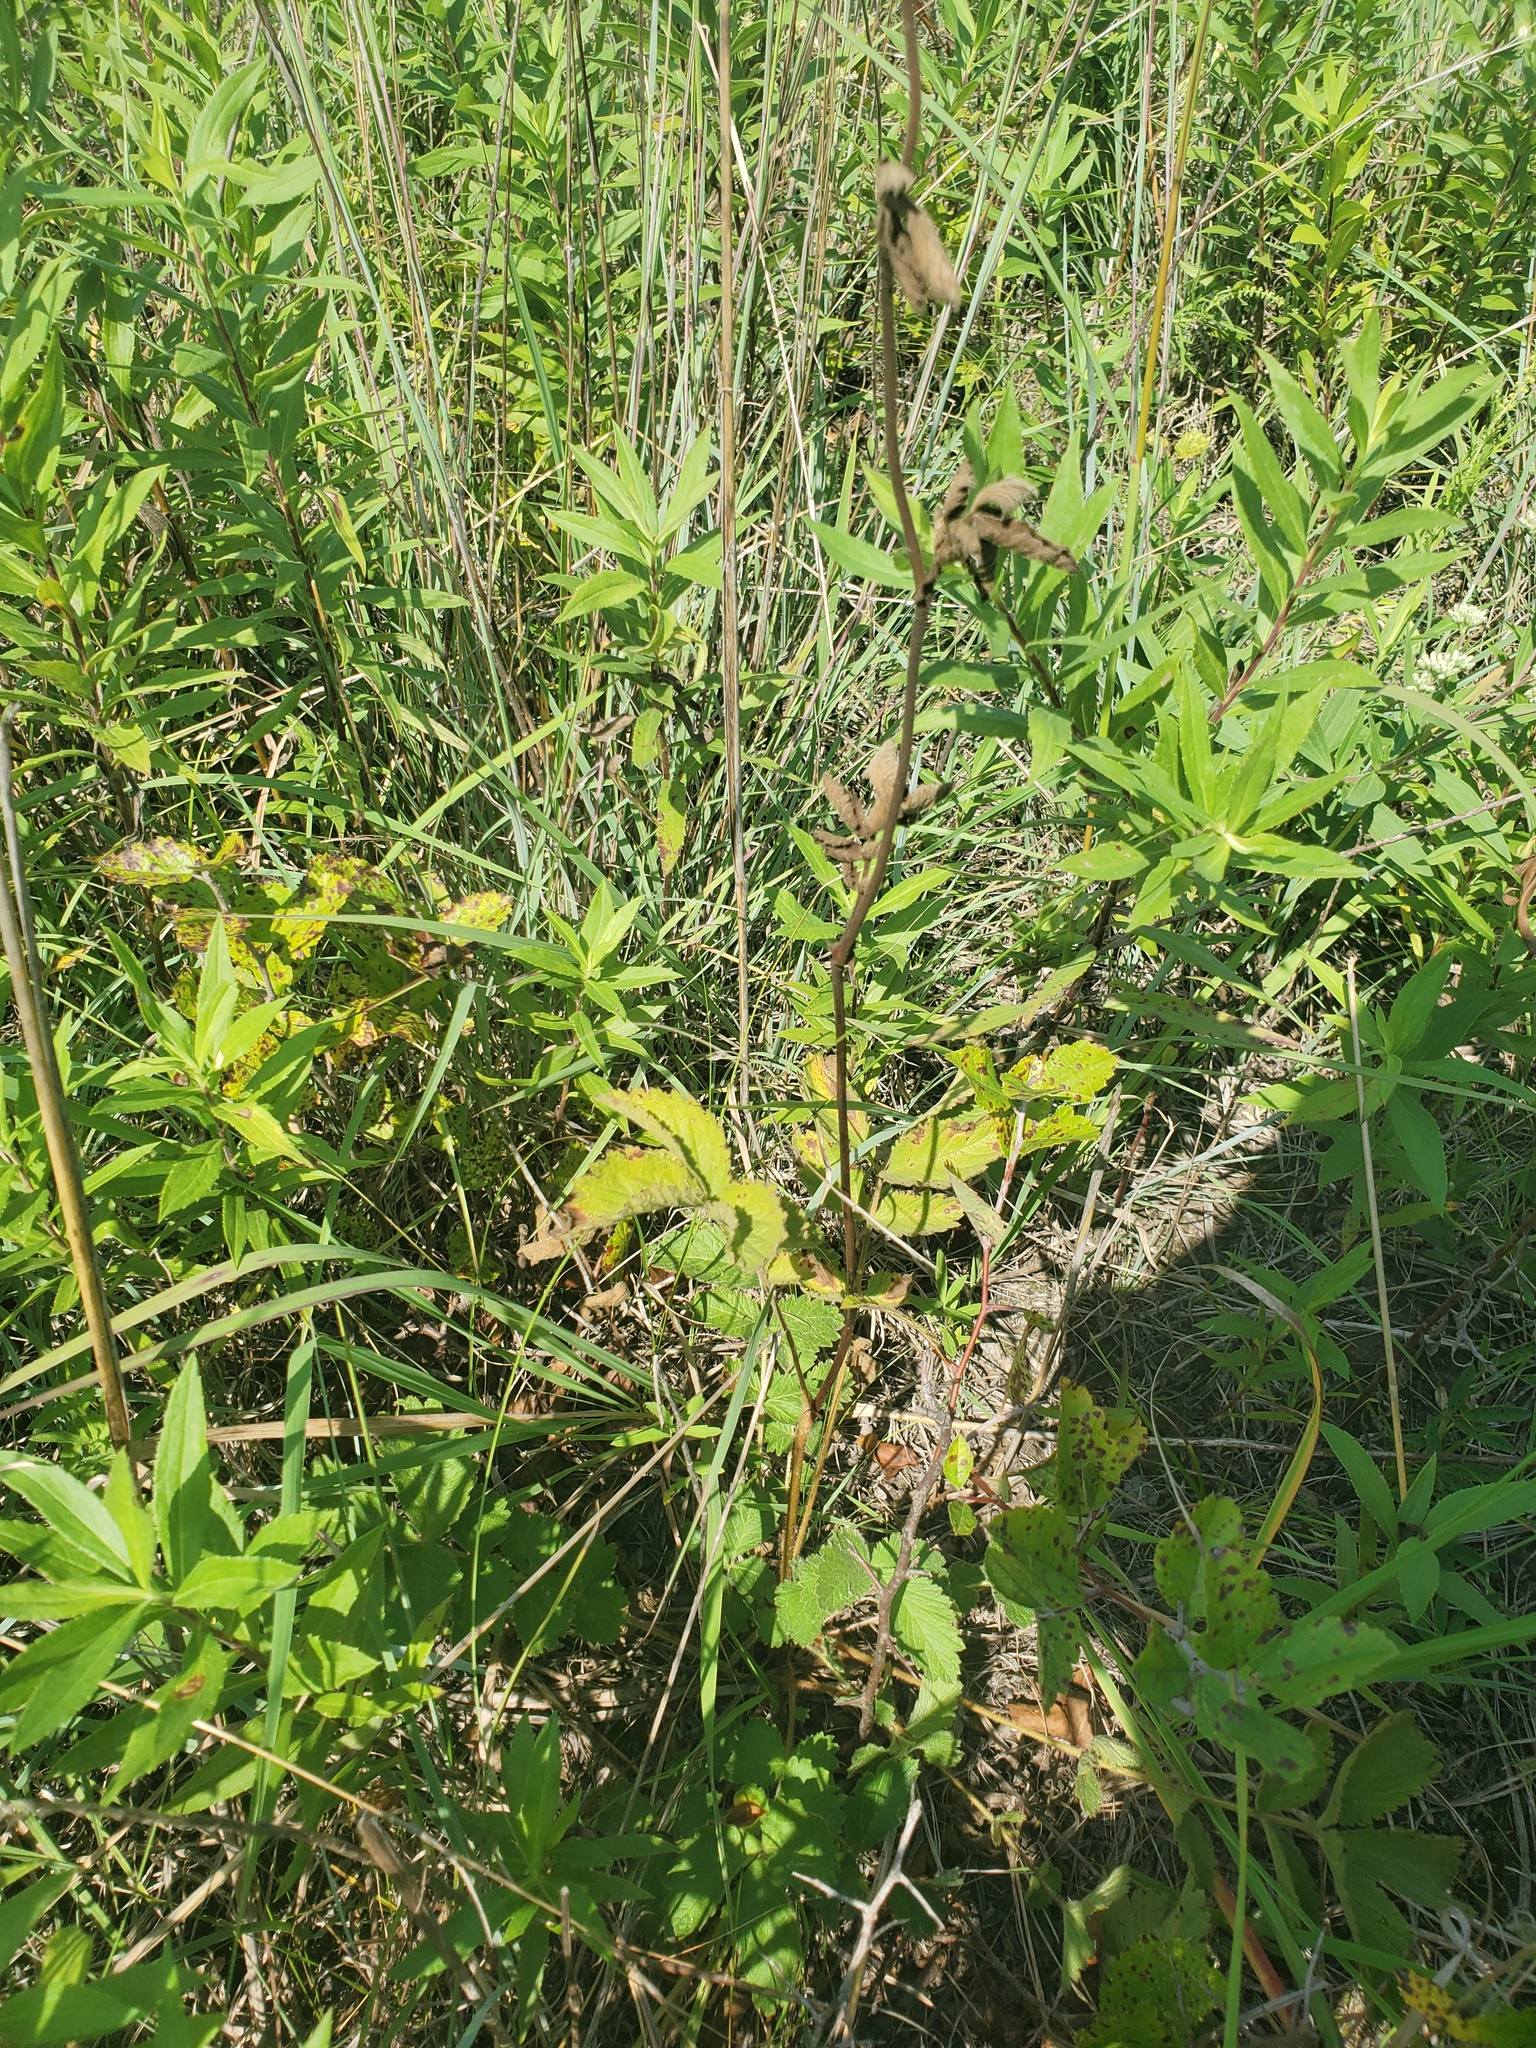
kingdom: Plantae
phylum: Tracheophyta
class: Magnoliopsida
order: Rosales
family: Rosaceae
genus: Drymocallis
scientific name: Drymocallis arguta
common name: Tall cinquefoil
